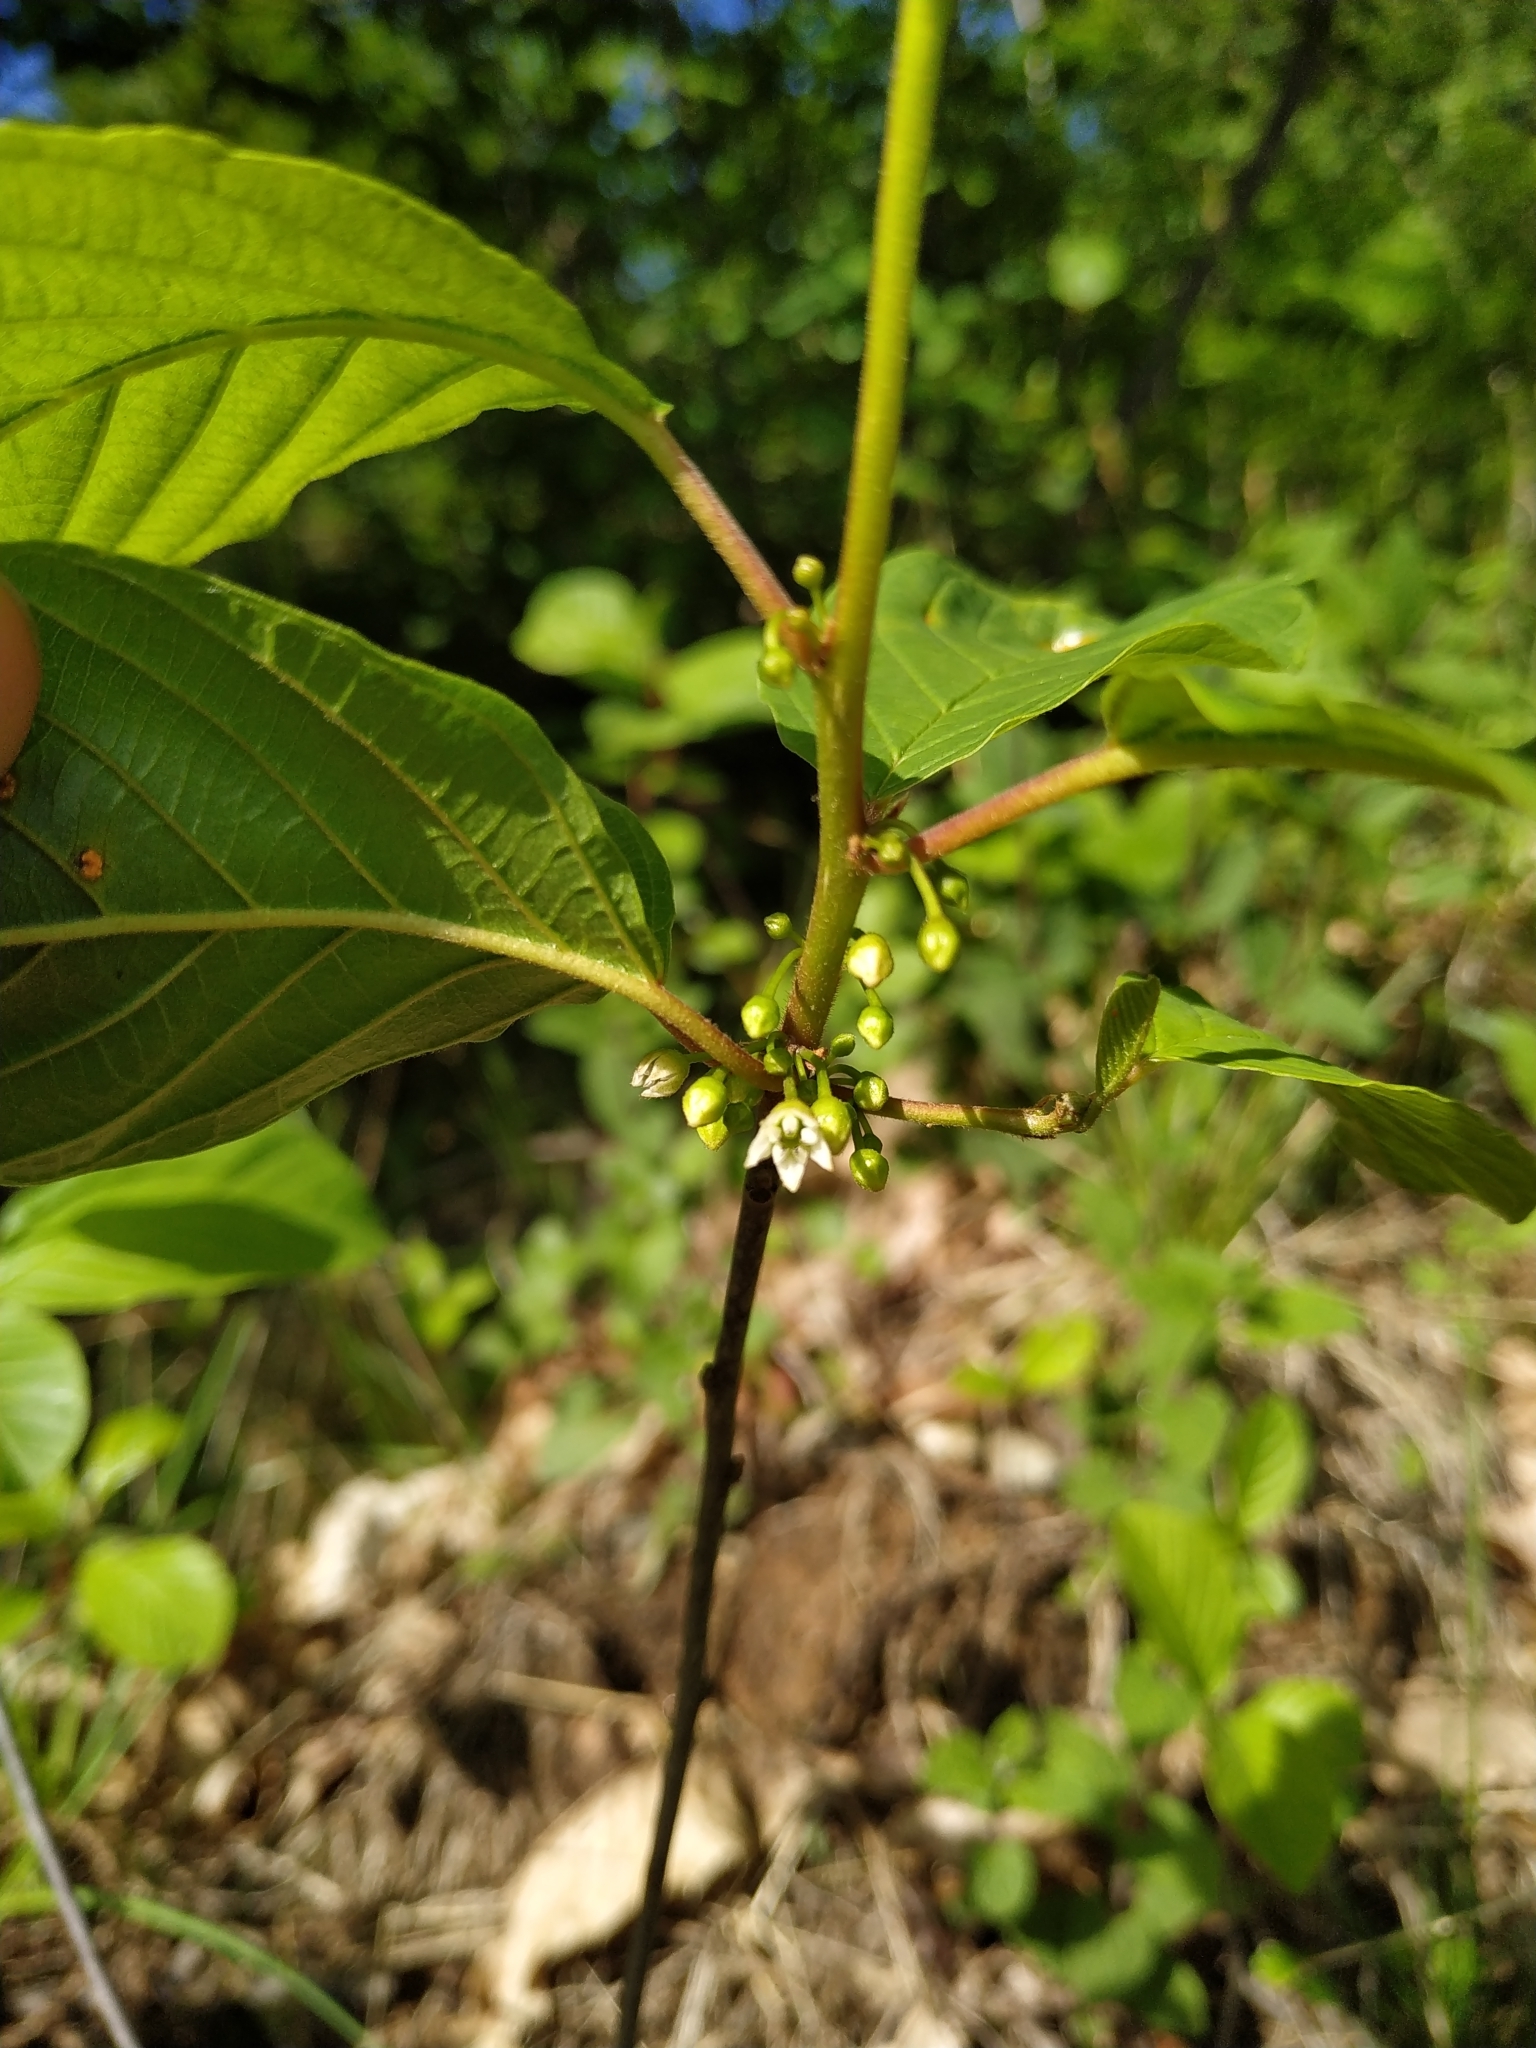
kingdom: Plantae
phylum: Tracheophyta
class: Magnoliopsida
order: Rosales
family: Rhamnaceae
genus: Frangula
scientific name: Frangula alnus
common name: Alder buckthorn
